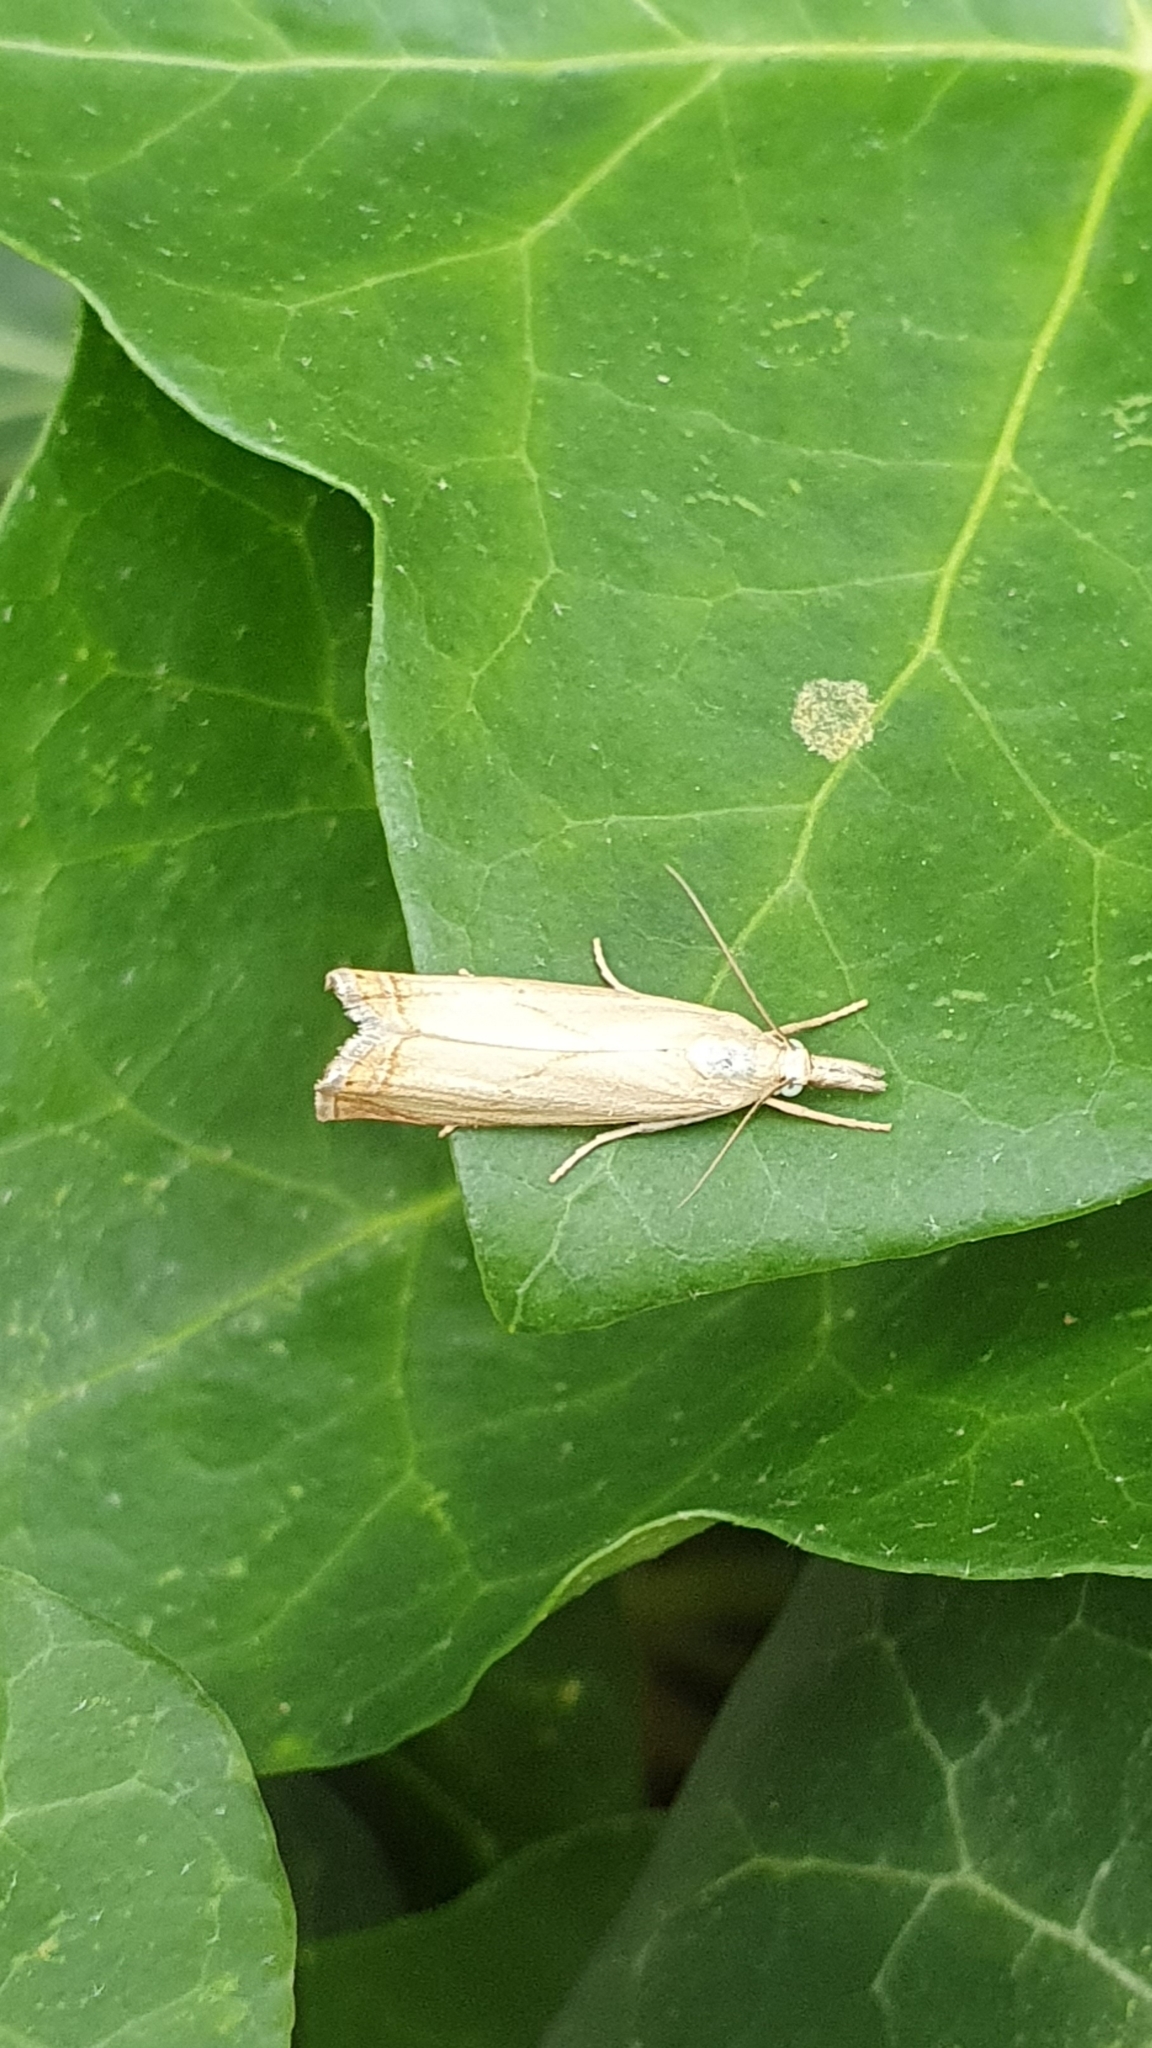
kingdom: Animalia
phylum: Arthropoda
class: Insecta
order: Lepidoptera
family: Crambidae
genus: Chrysoteuchia
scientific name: Chrysoteuchia culmella
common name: Garden grass-veneer
